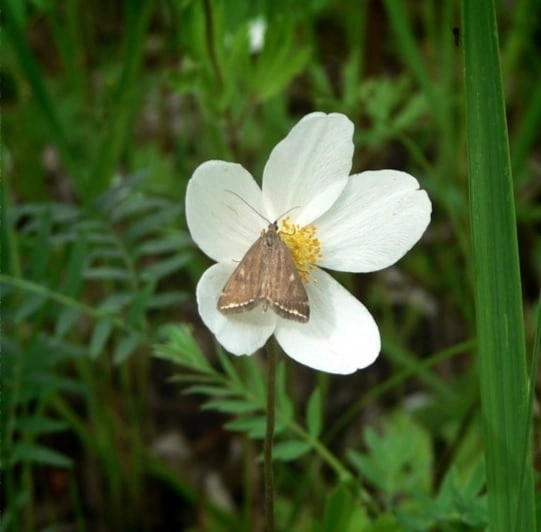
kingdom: Plantae
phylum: Tracheophyta
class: Magnoliopsida
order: Ranunculales
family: Ranunculaceae
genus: Anemone
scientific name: Anemone sylvestris
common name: Snowdrop anemone
